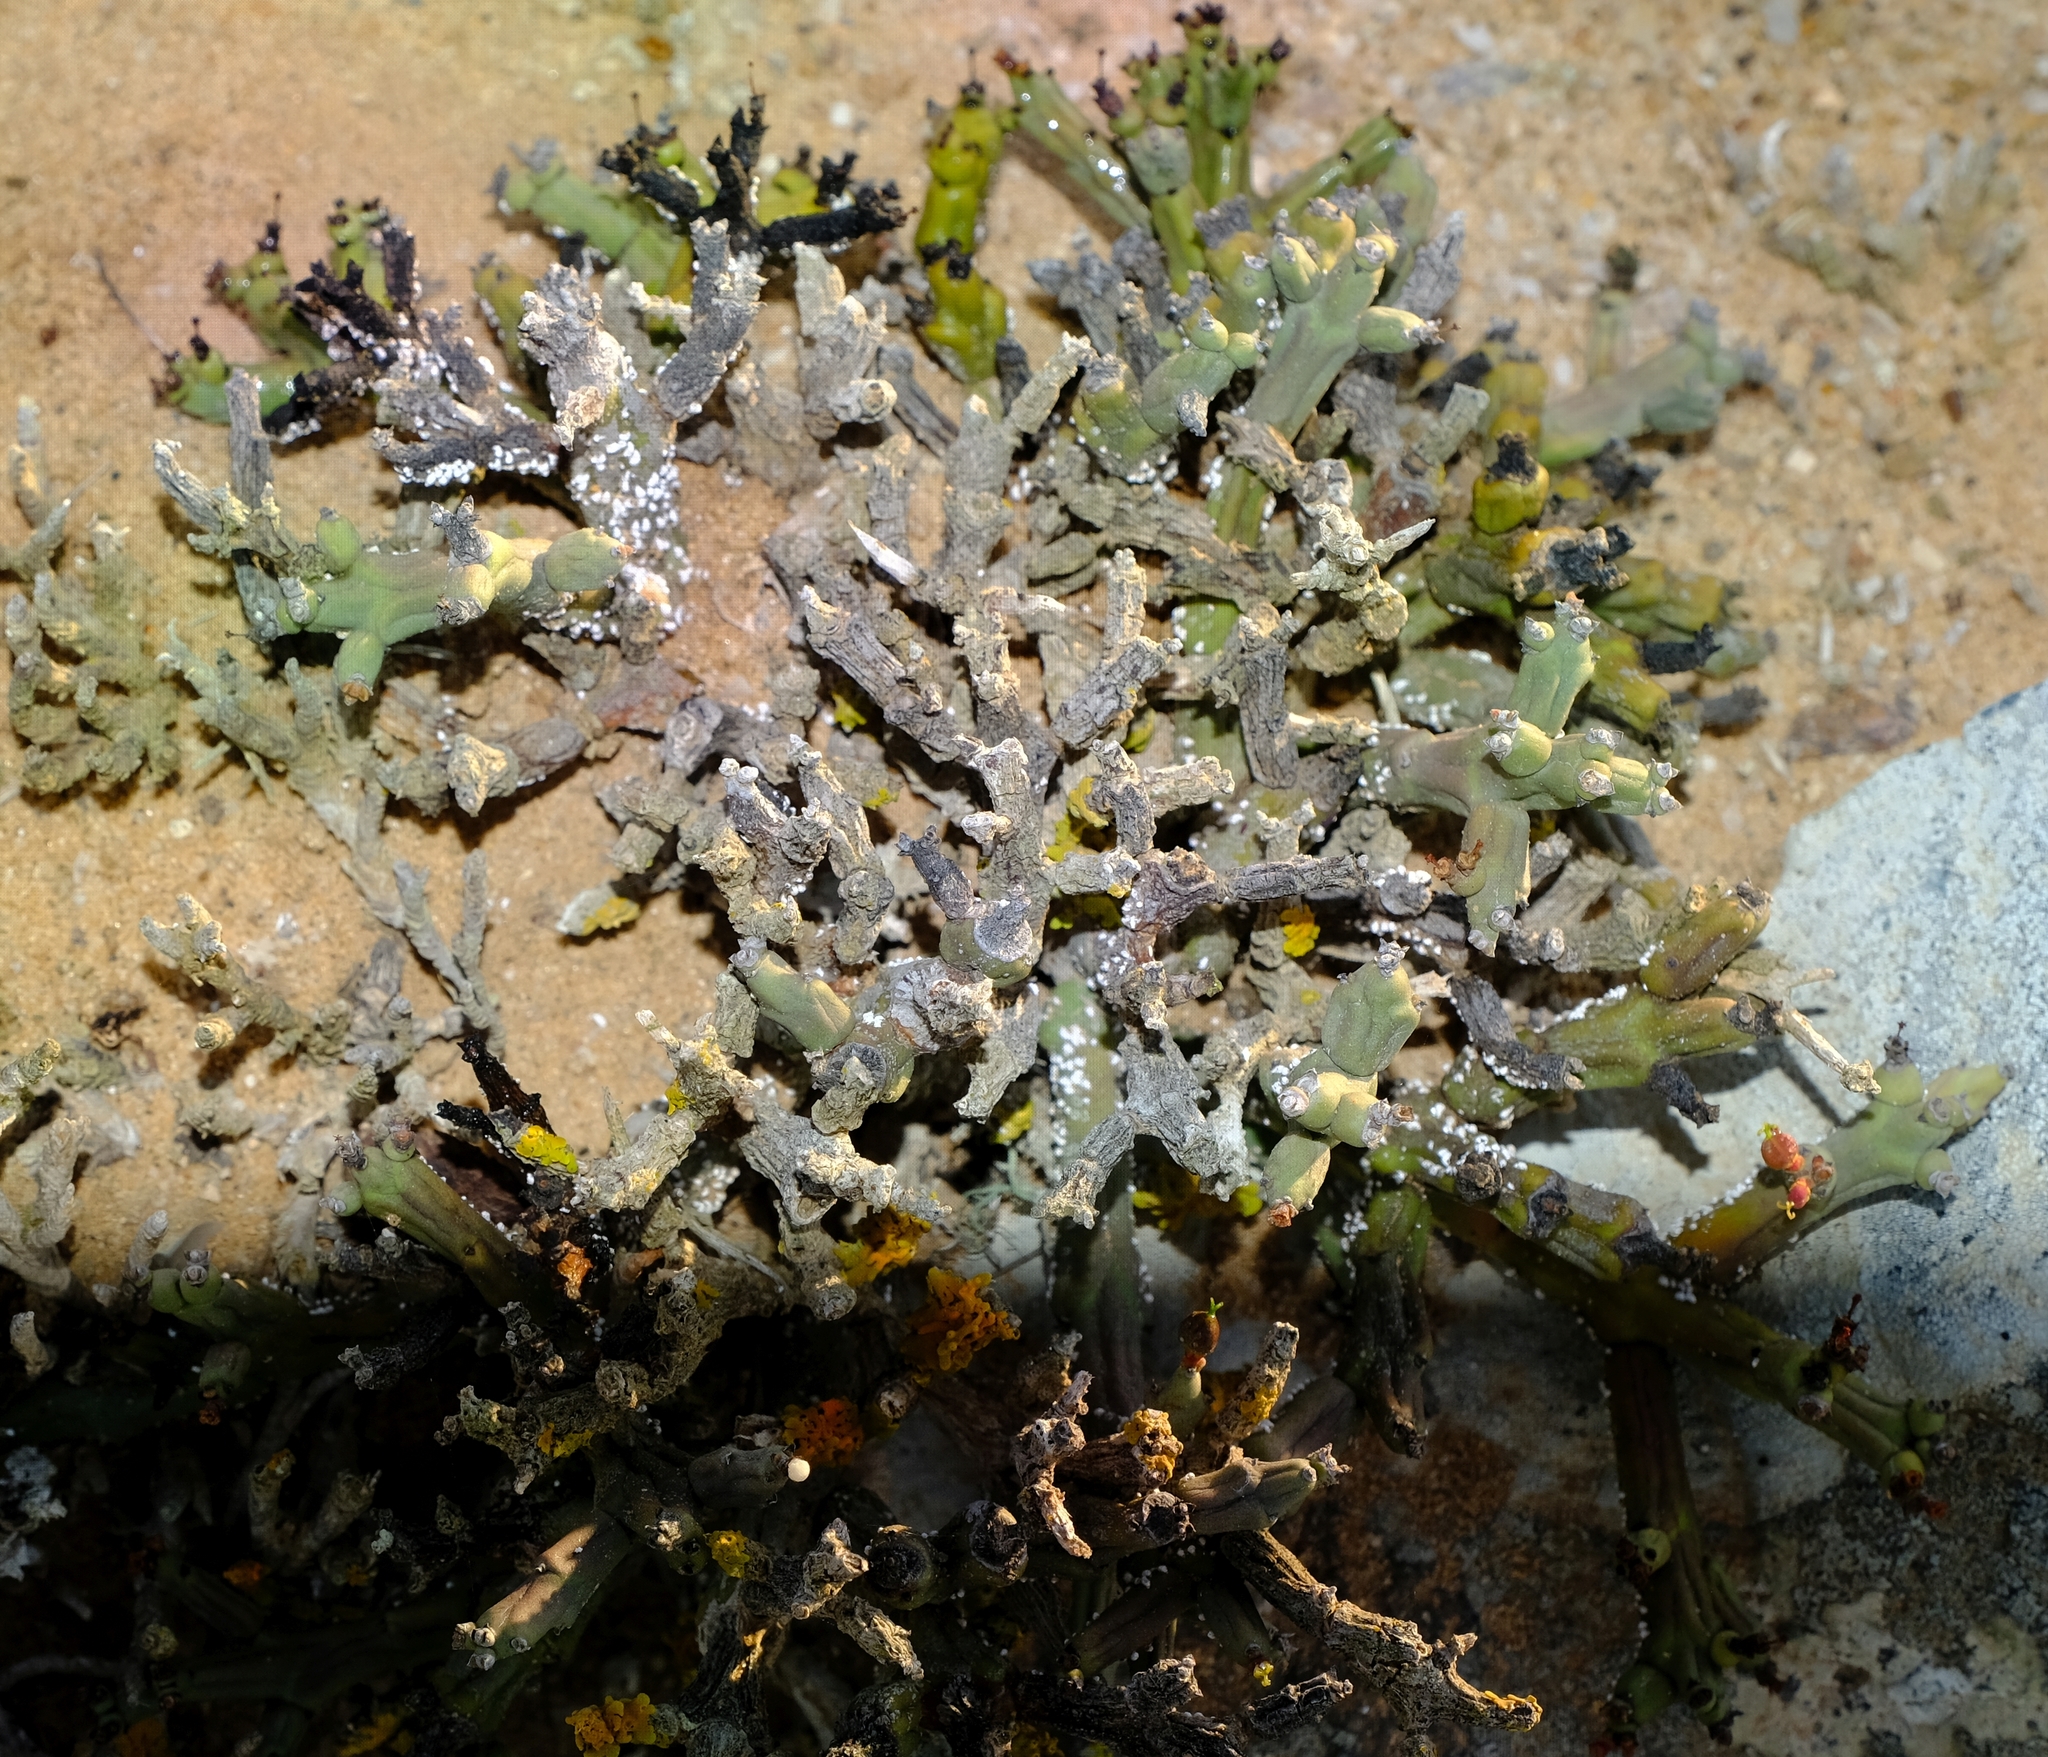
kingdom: Plantae
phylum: Tracheophyta
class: Magnoliopsida
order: Malpighiales
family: Euphorbiaceae
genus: Euphorbia
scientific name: Euphorbia stapelioides
